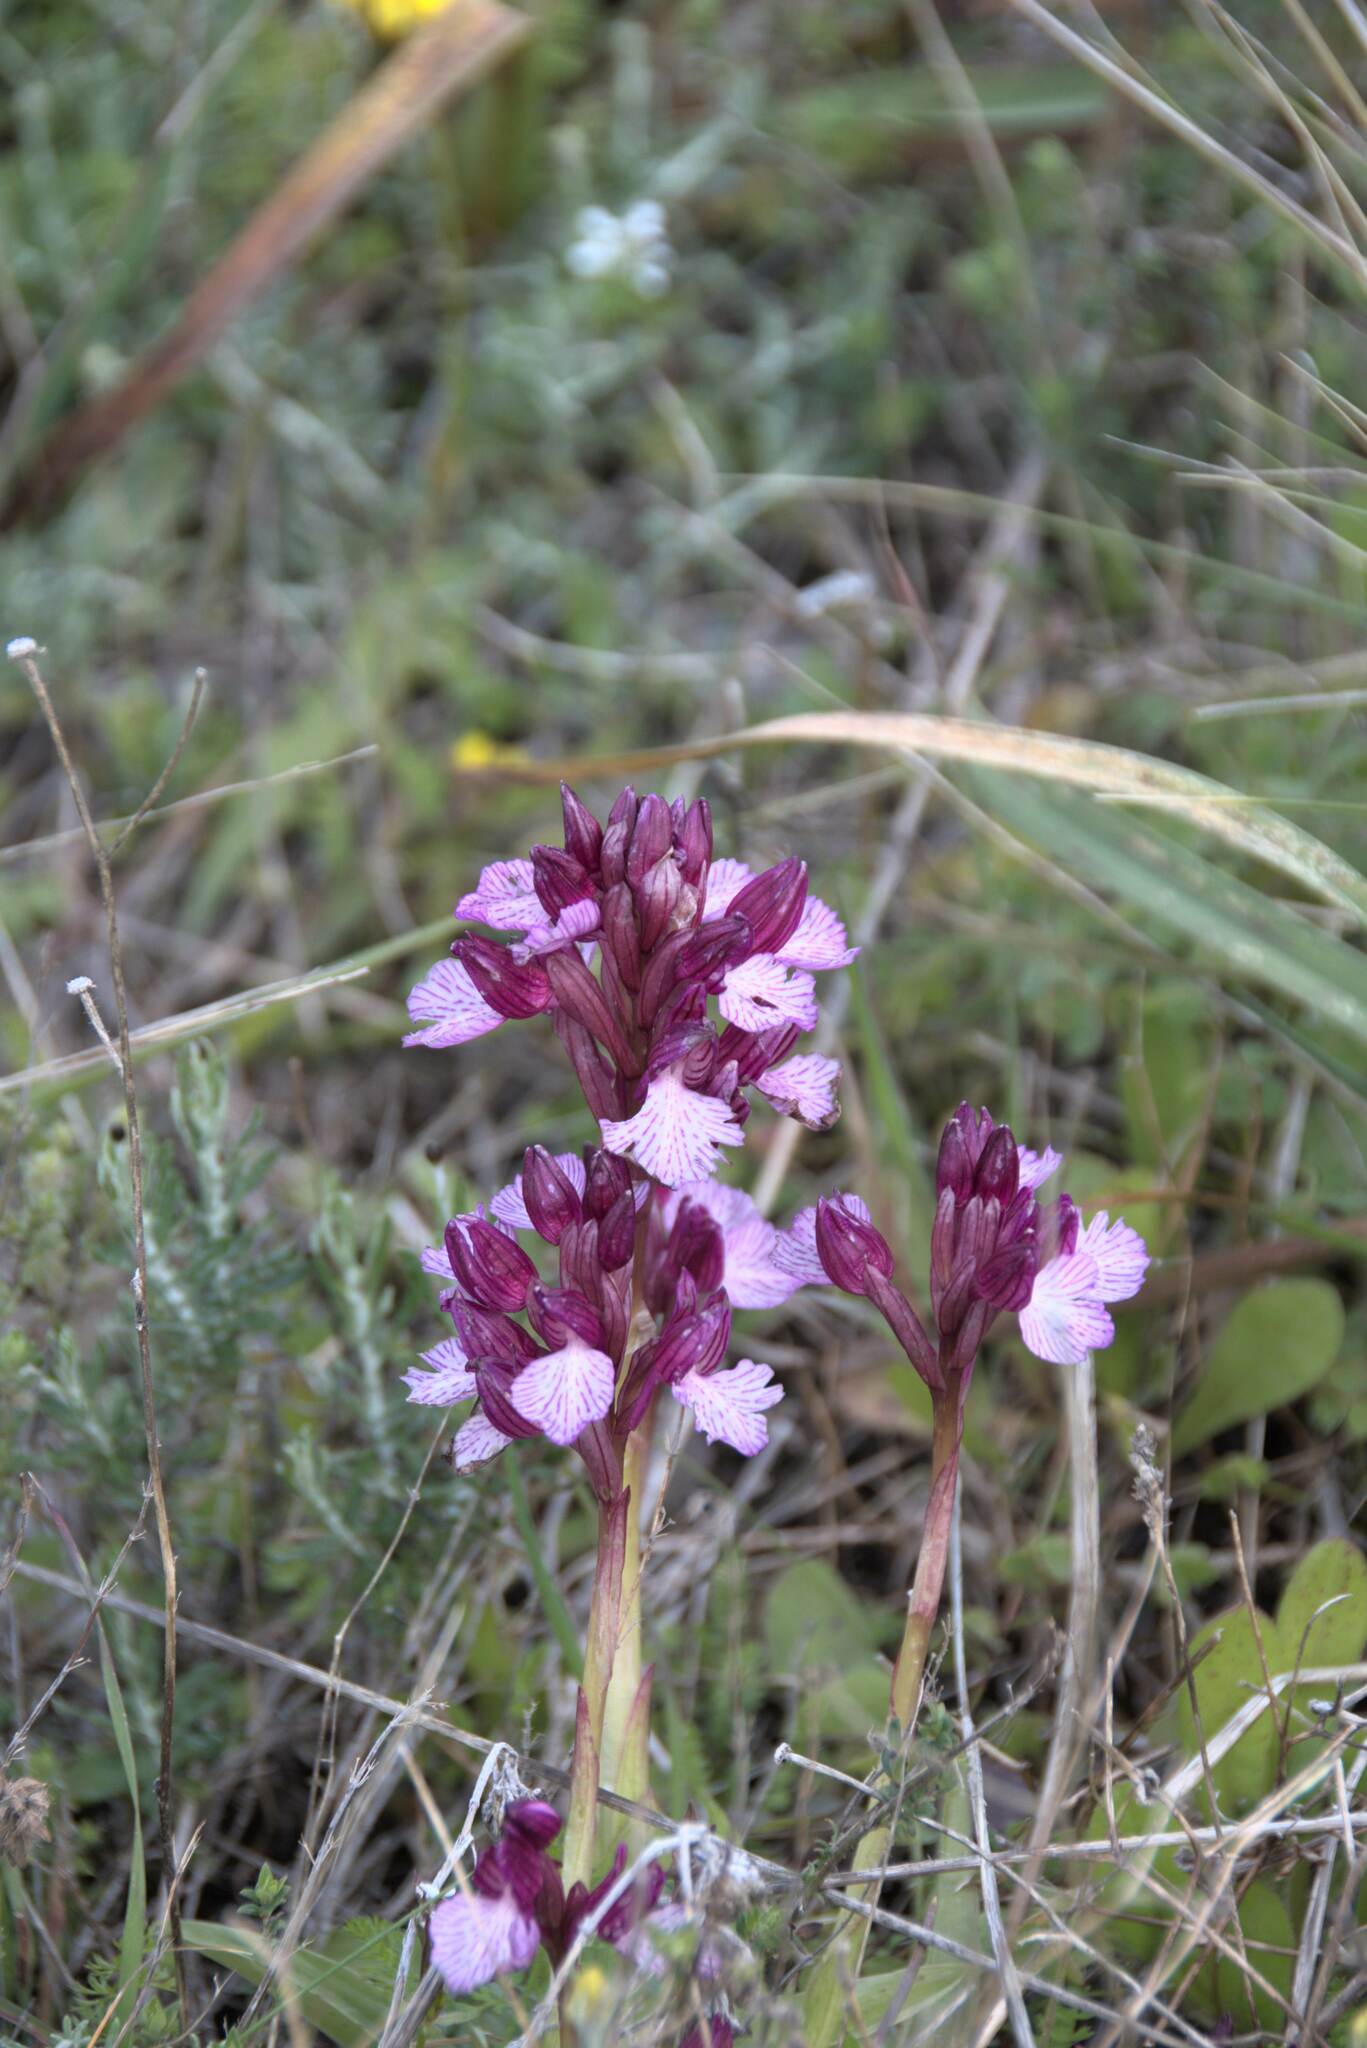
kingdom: Plantae
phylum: Tracheophyta
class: Liliopsida
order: Asparagales
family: Orchidaceae
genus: Anacamptis
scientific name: Anacamptis papilionacea
